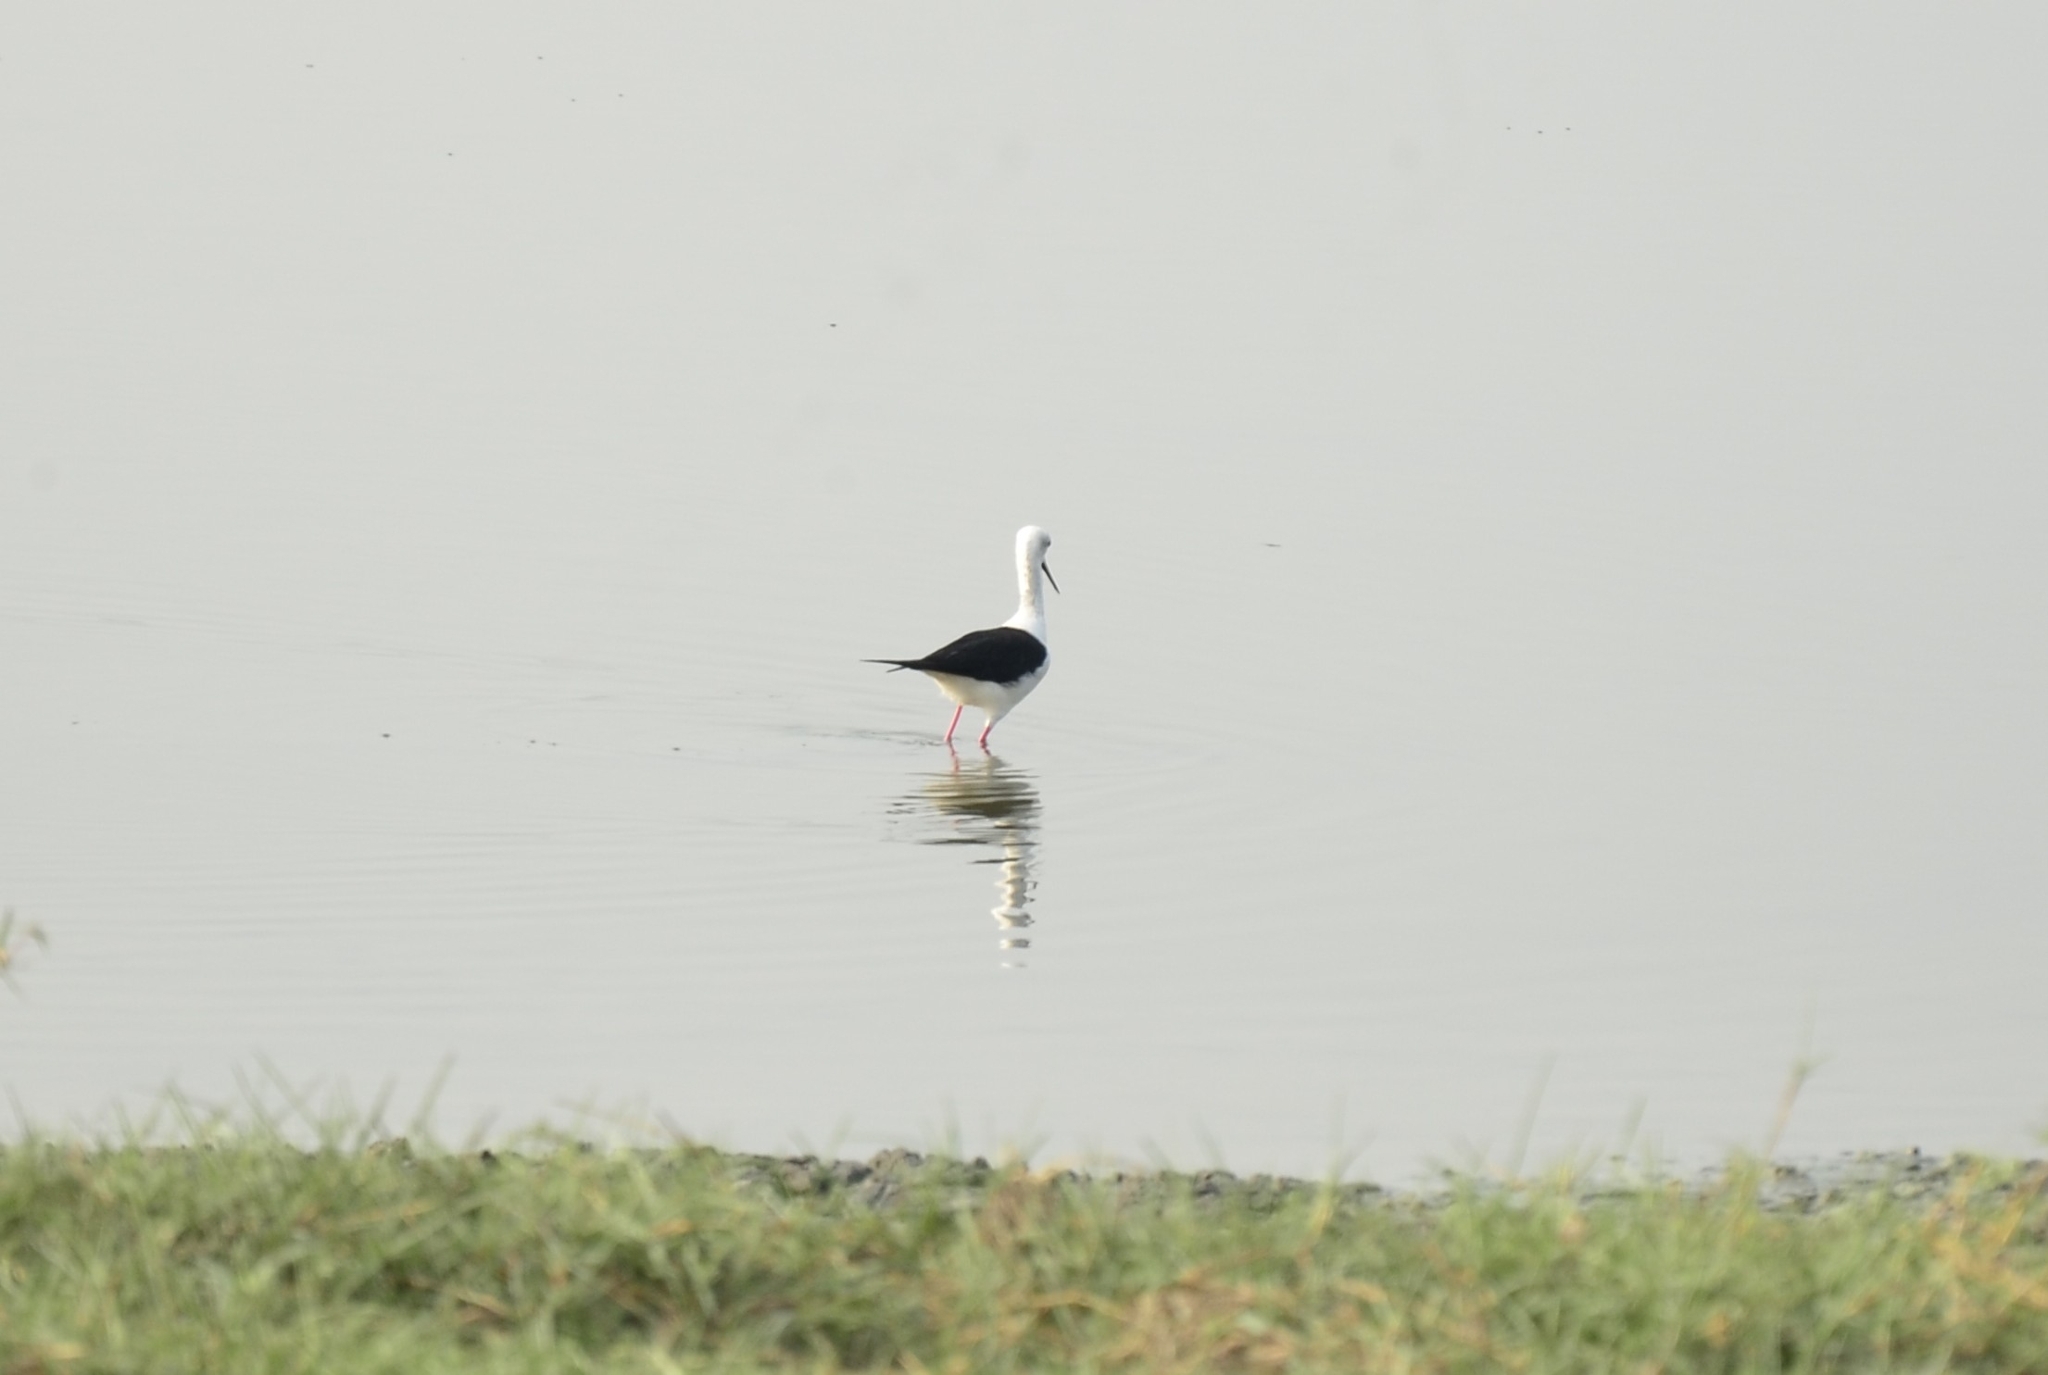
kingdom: Animalia
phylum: Chordata
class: Aves
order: Charadriiformes
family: Recurvirostridae
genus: Himantopus
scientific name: Himantopus himantopus
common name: Black-winged stilt
